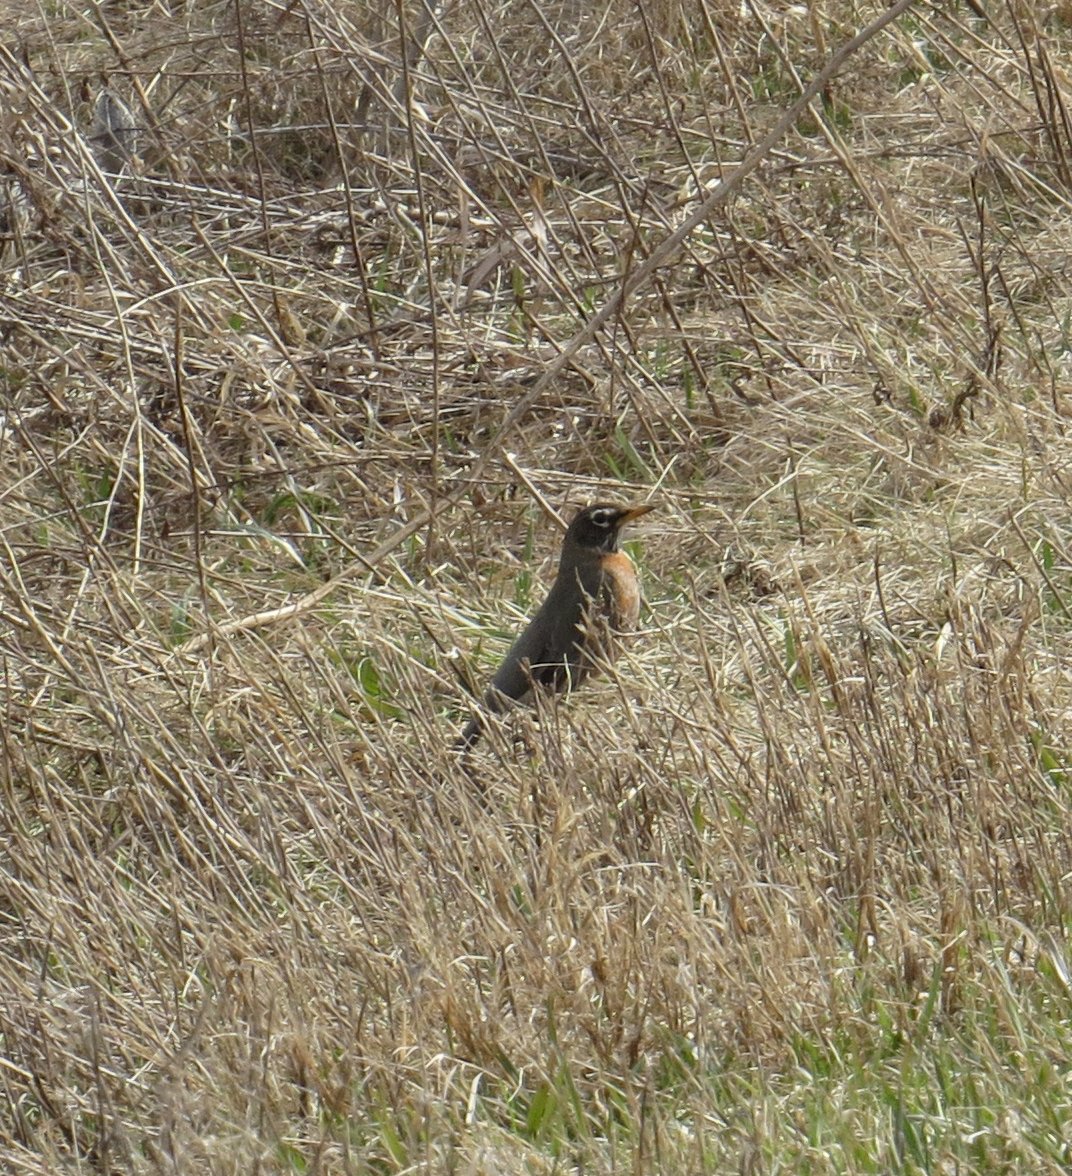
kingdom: Animalia
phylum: Chordata
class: Aves
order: Passeriformes
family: Turdidae
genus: Turdus
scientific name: Turdus migratorius
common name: American robin
